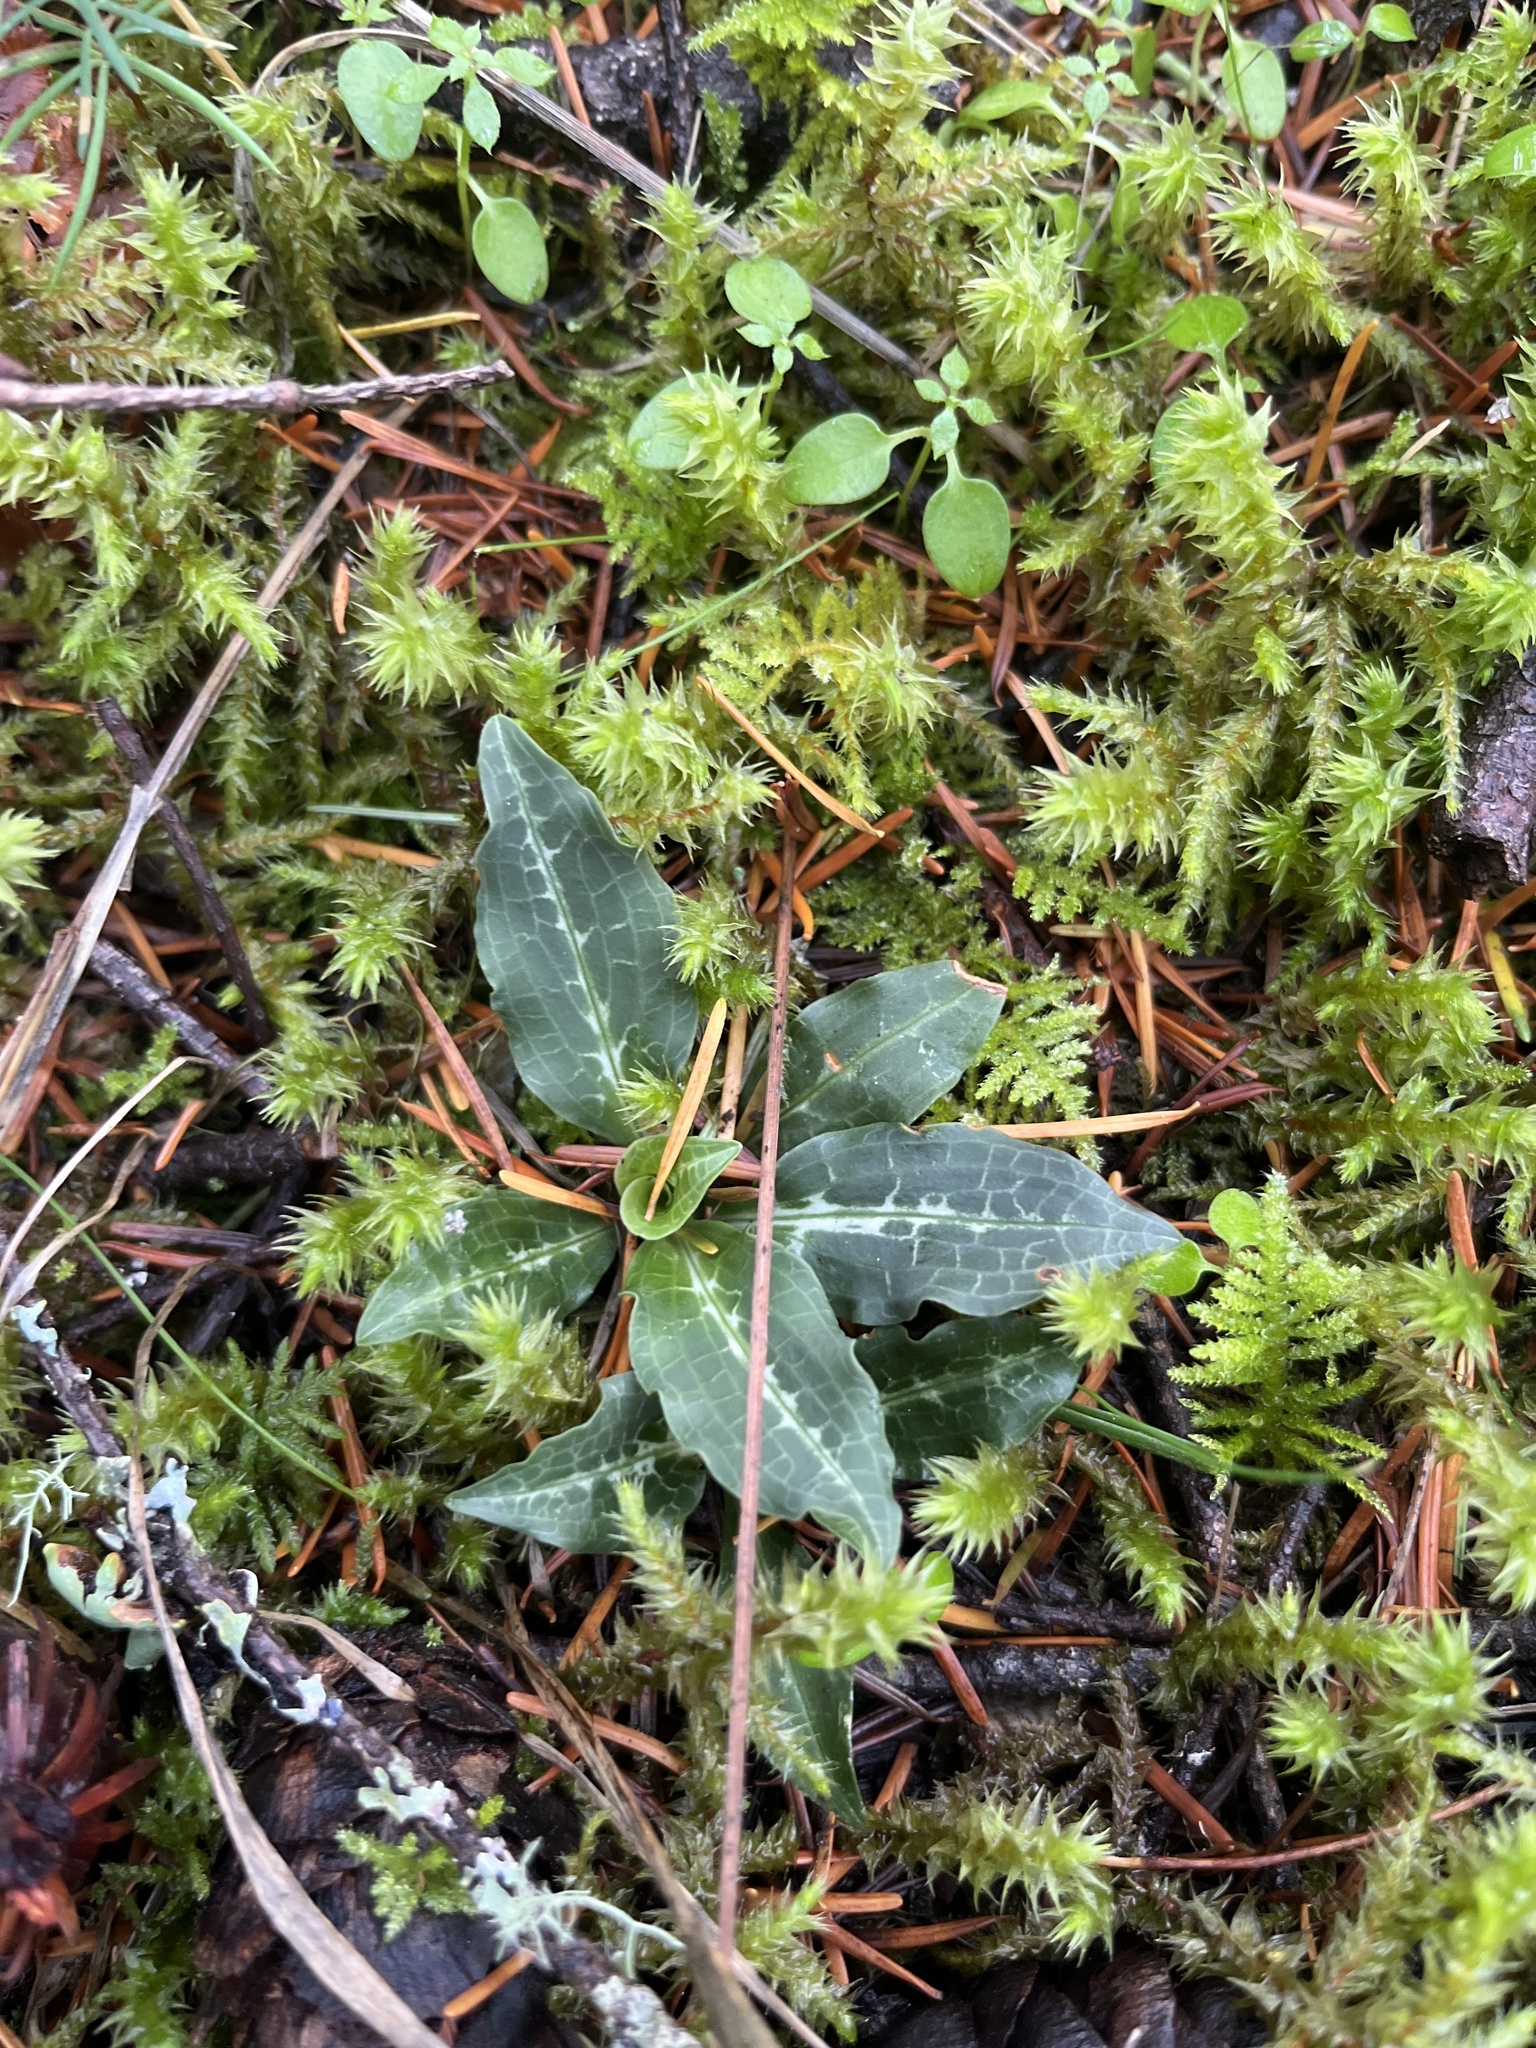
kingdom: Plantae
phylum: Tracheophyta
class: Liliopsida
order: Asparagales
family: Orchidaceae
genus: Goodyera
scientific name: Goodyera oblongifolia
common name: Giant rattlesnake-plantain
